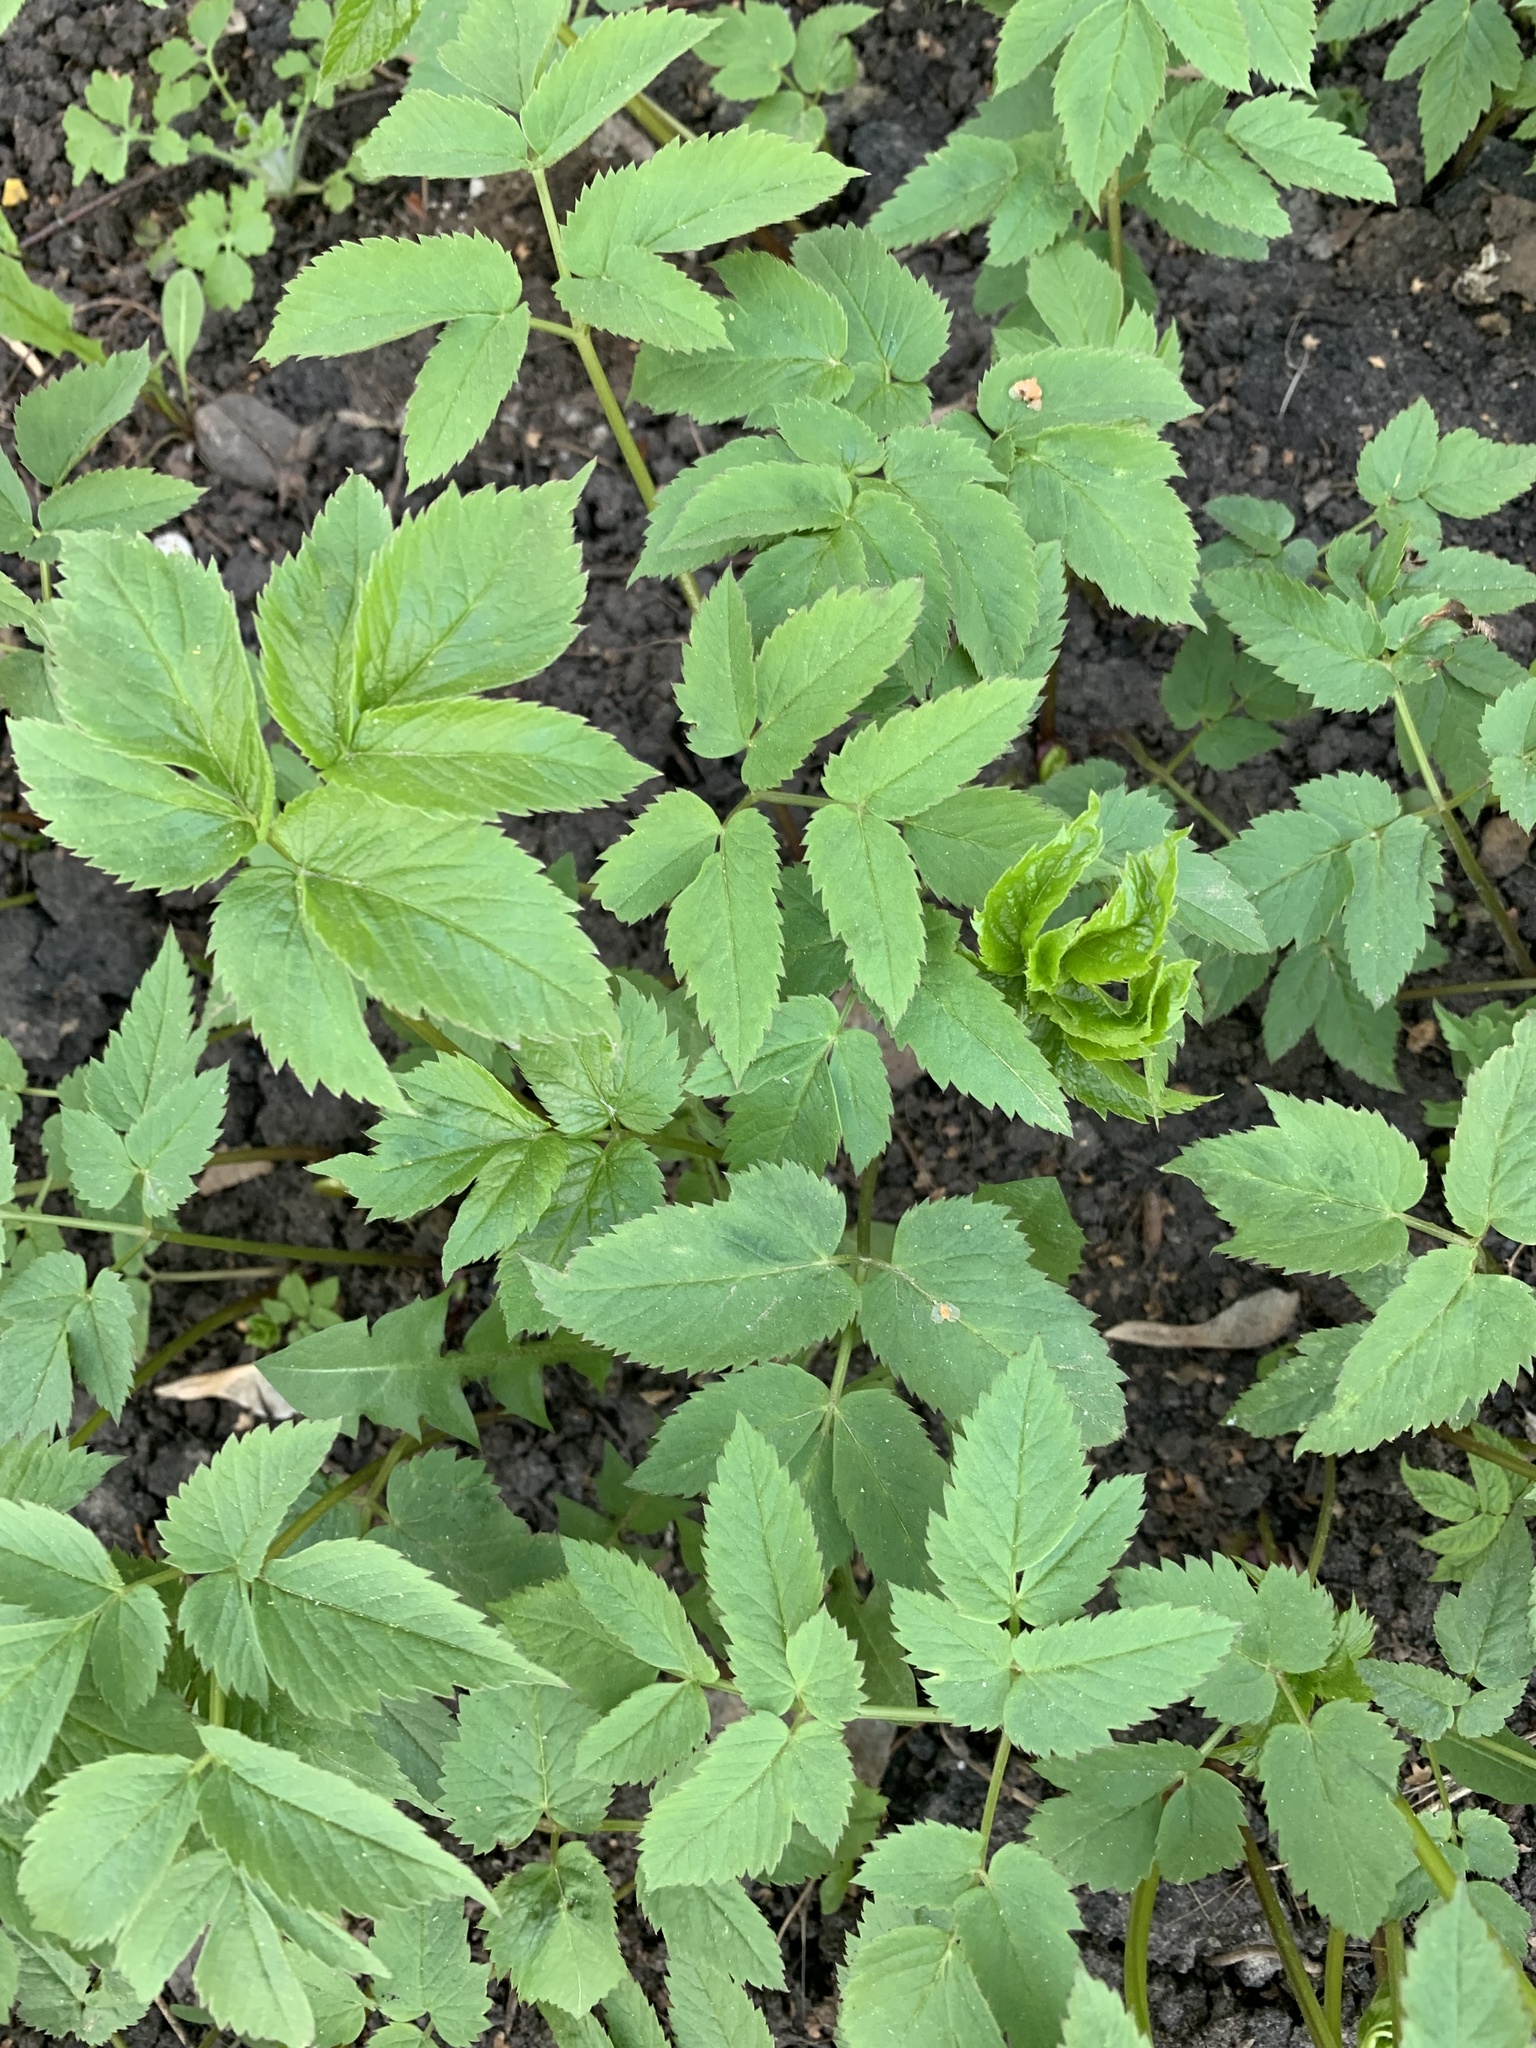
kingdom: Plantae
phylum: Tracheophyta
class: Magnoliopsida
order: Apiales
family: Apiaceae
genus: Aegopodium
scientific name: Aegopodium podagraria
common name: Ground-elder
